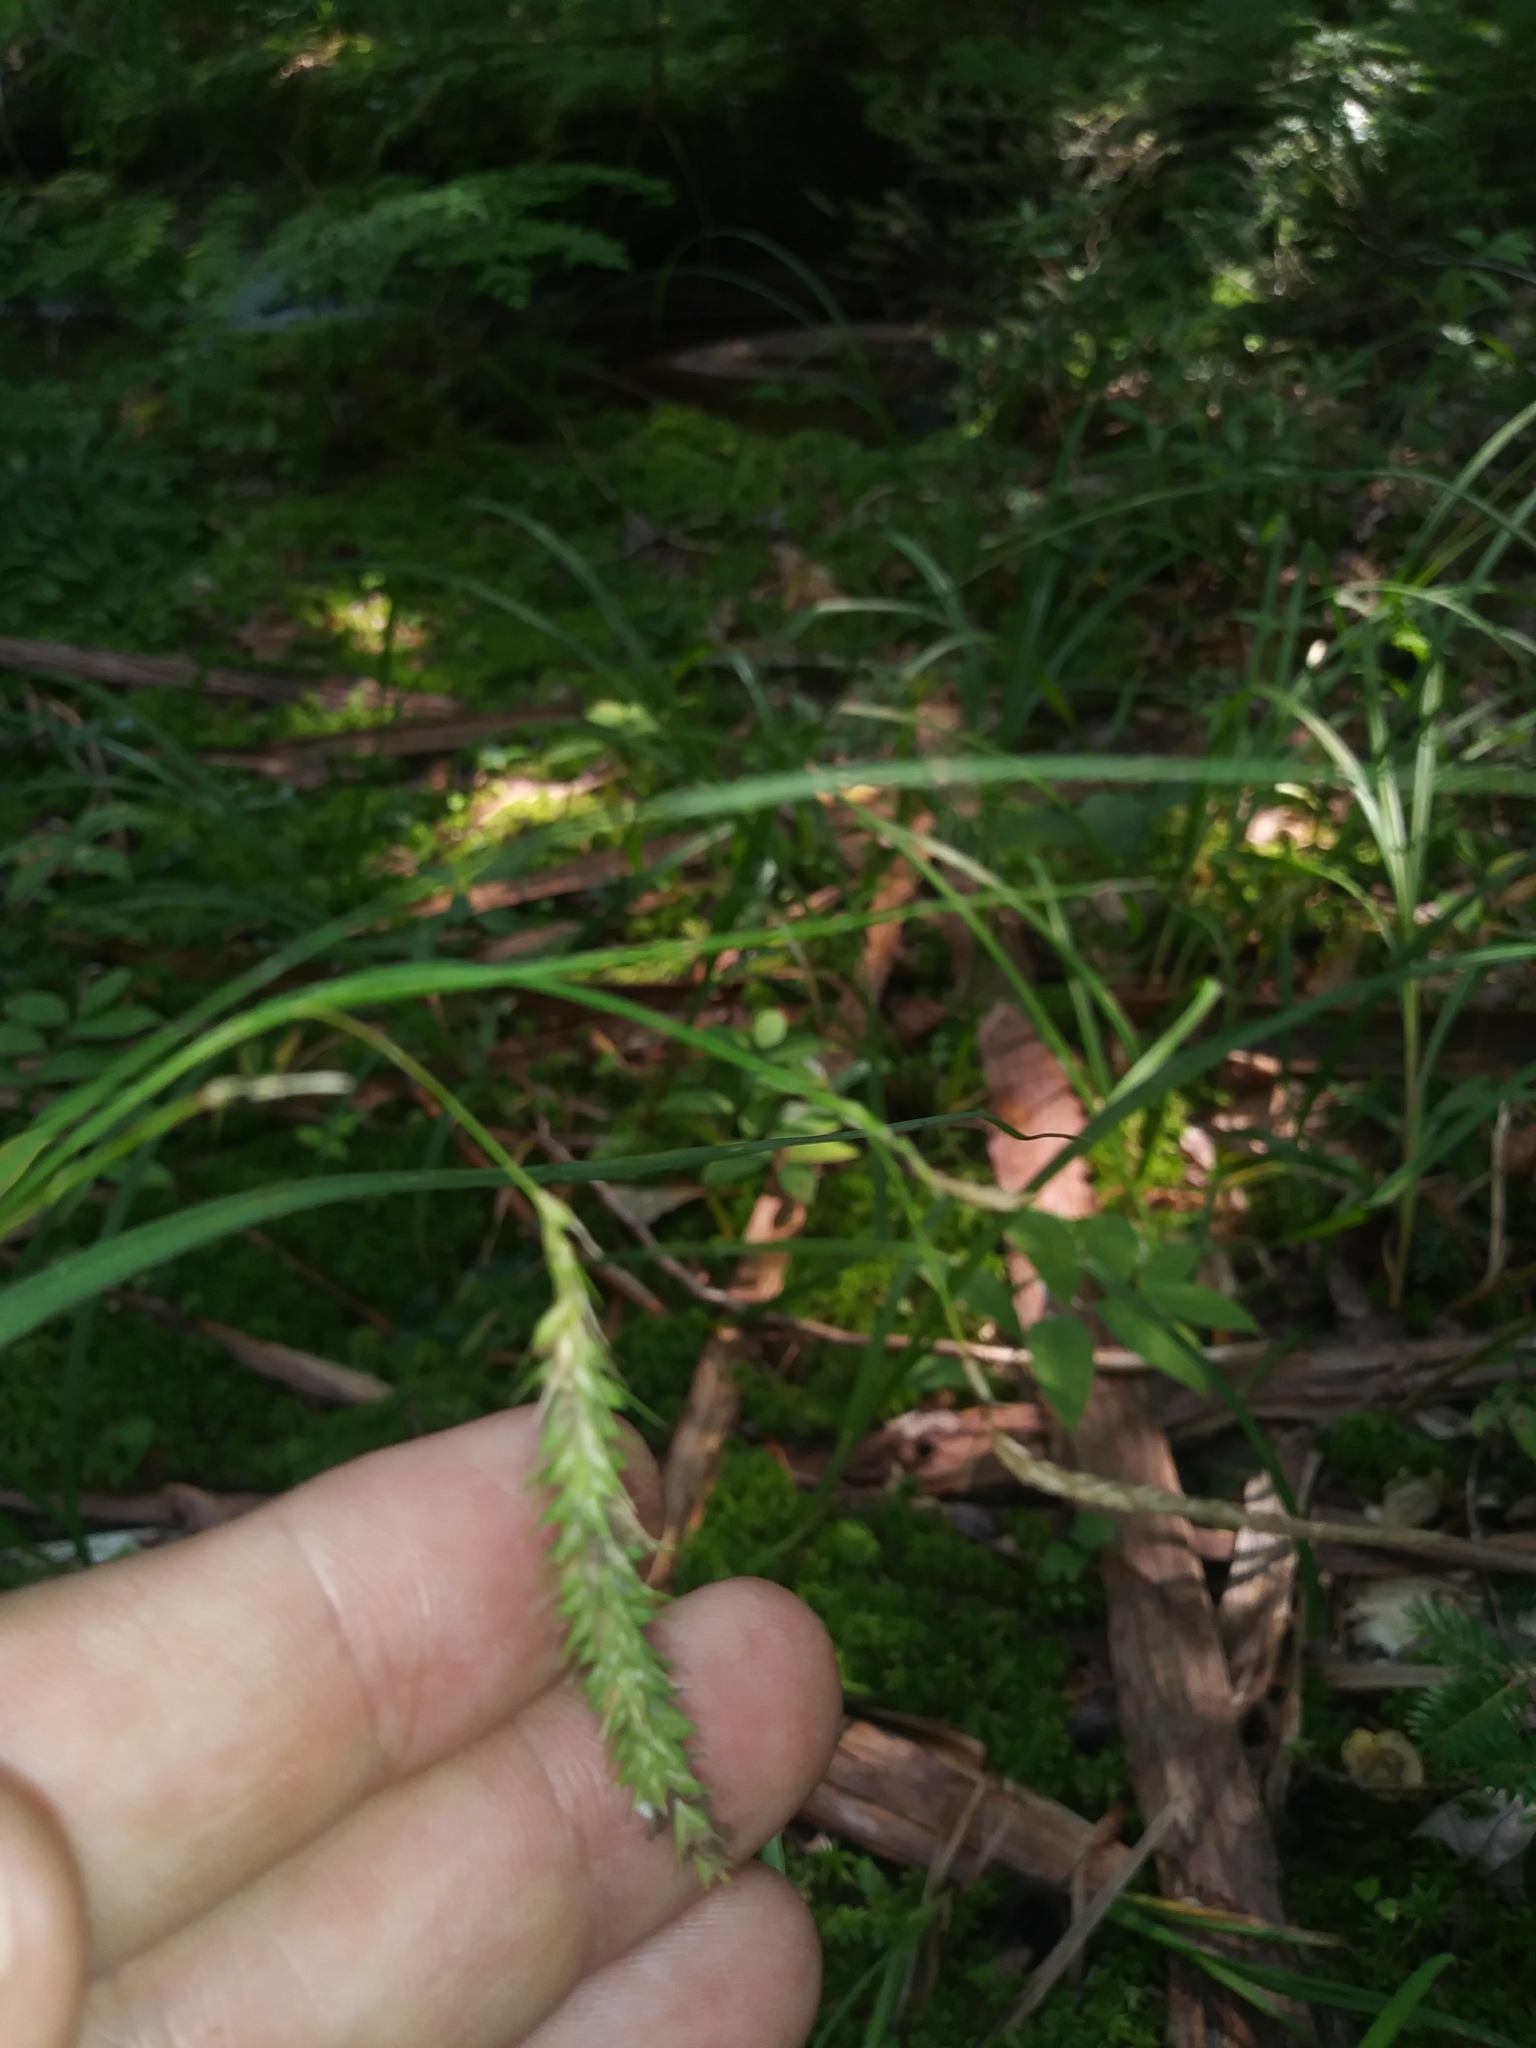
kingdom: Plantae
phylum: Tracheophyta
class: Liliopsida
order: Poales
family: Cyperaceae
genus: Carex
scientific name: Carex gynandra
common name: Nodding sedge
